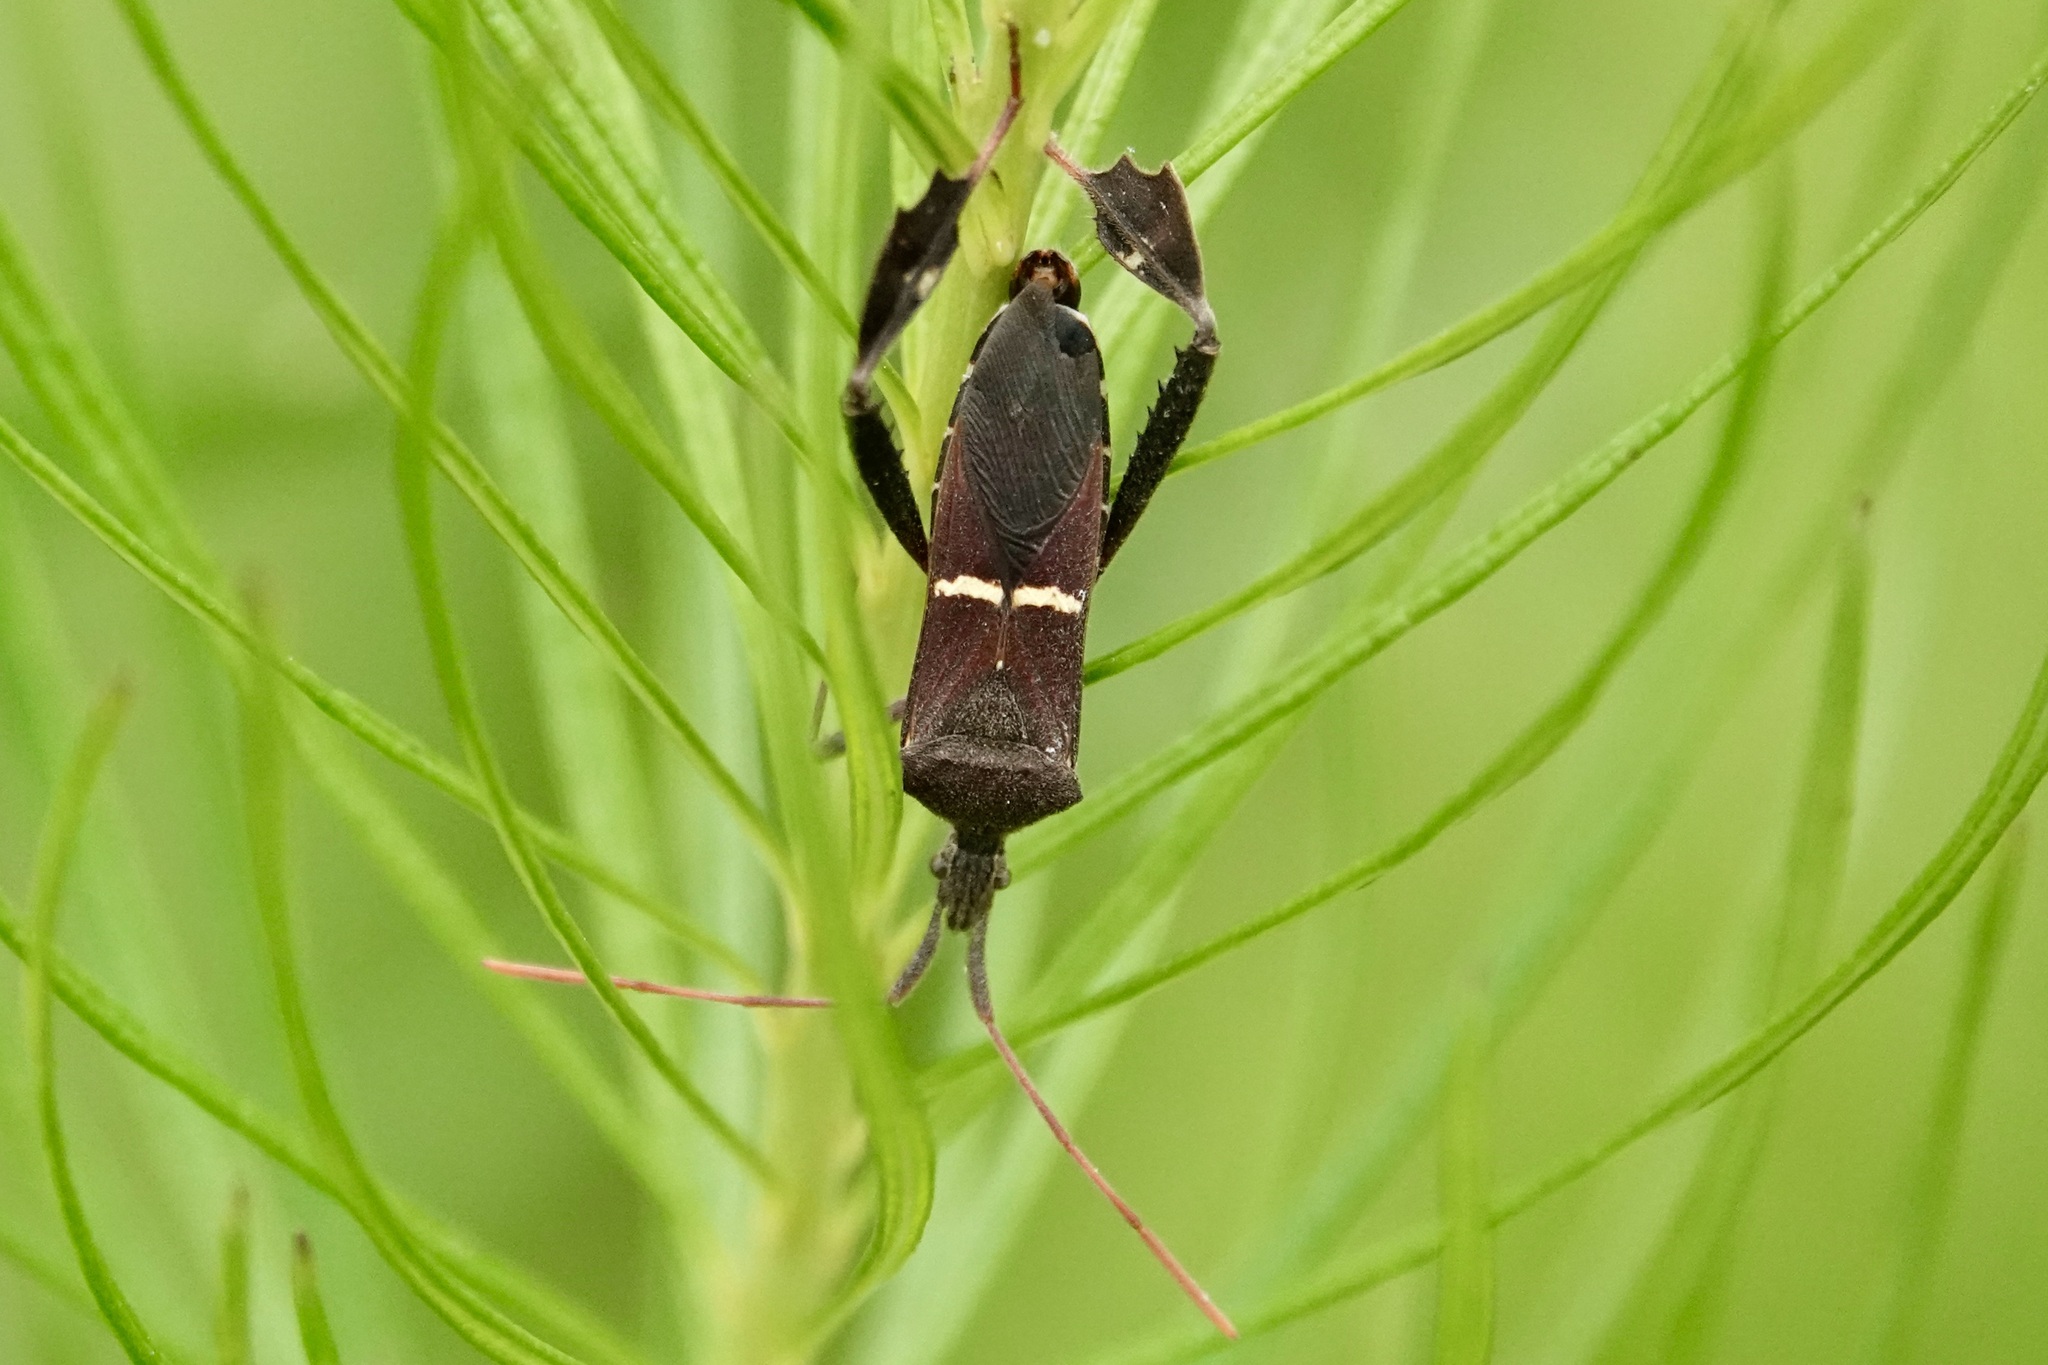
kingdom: Animalia
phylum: Arthropoda
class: Insecta
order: Hemiptera
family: Coreidae
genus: Leptoglossus
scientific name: Leptoglossus phyllopus
